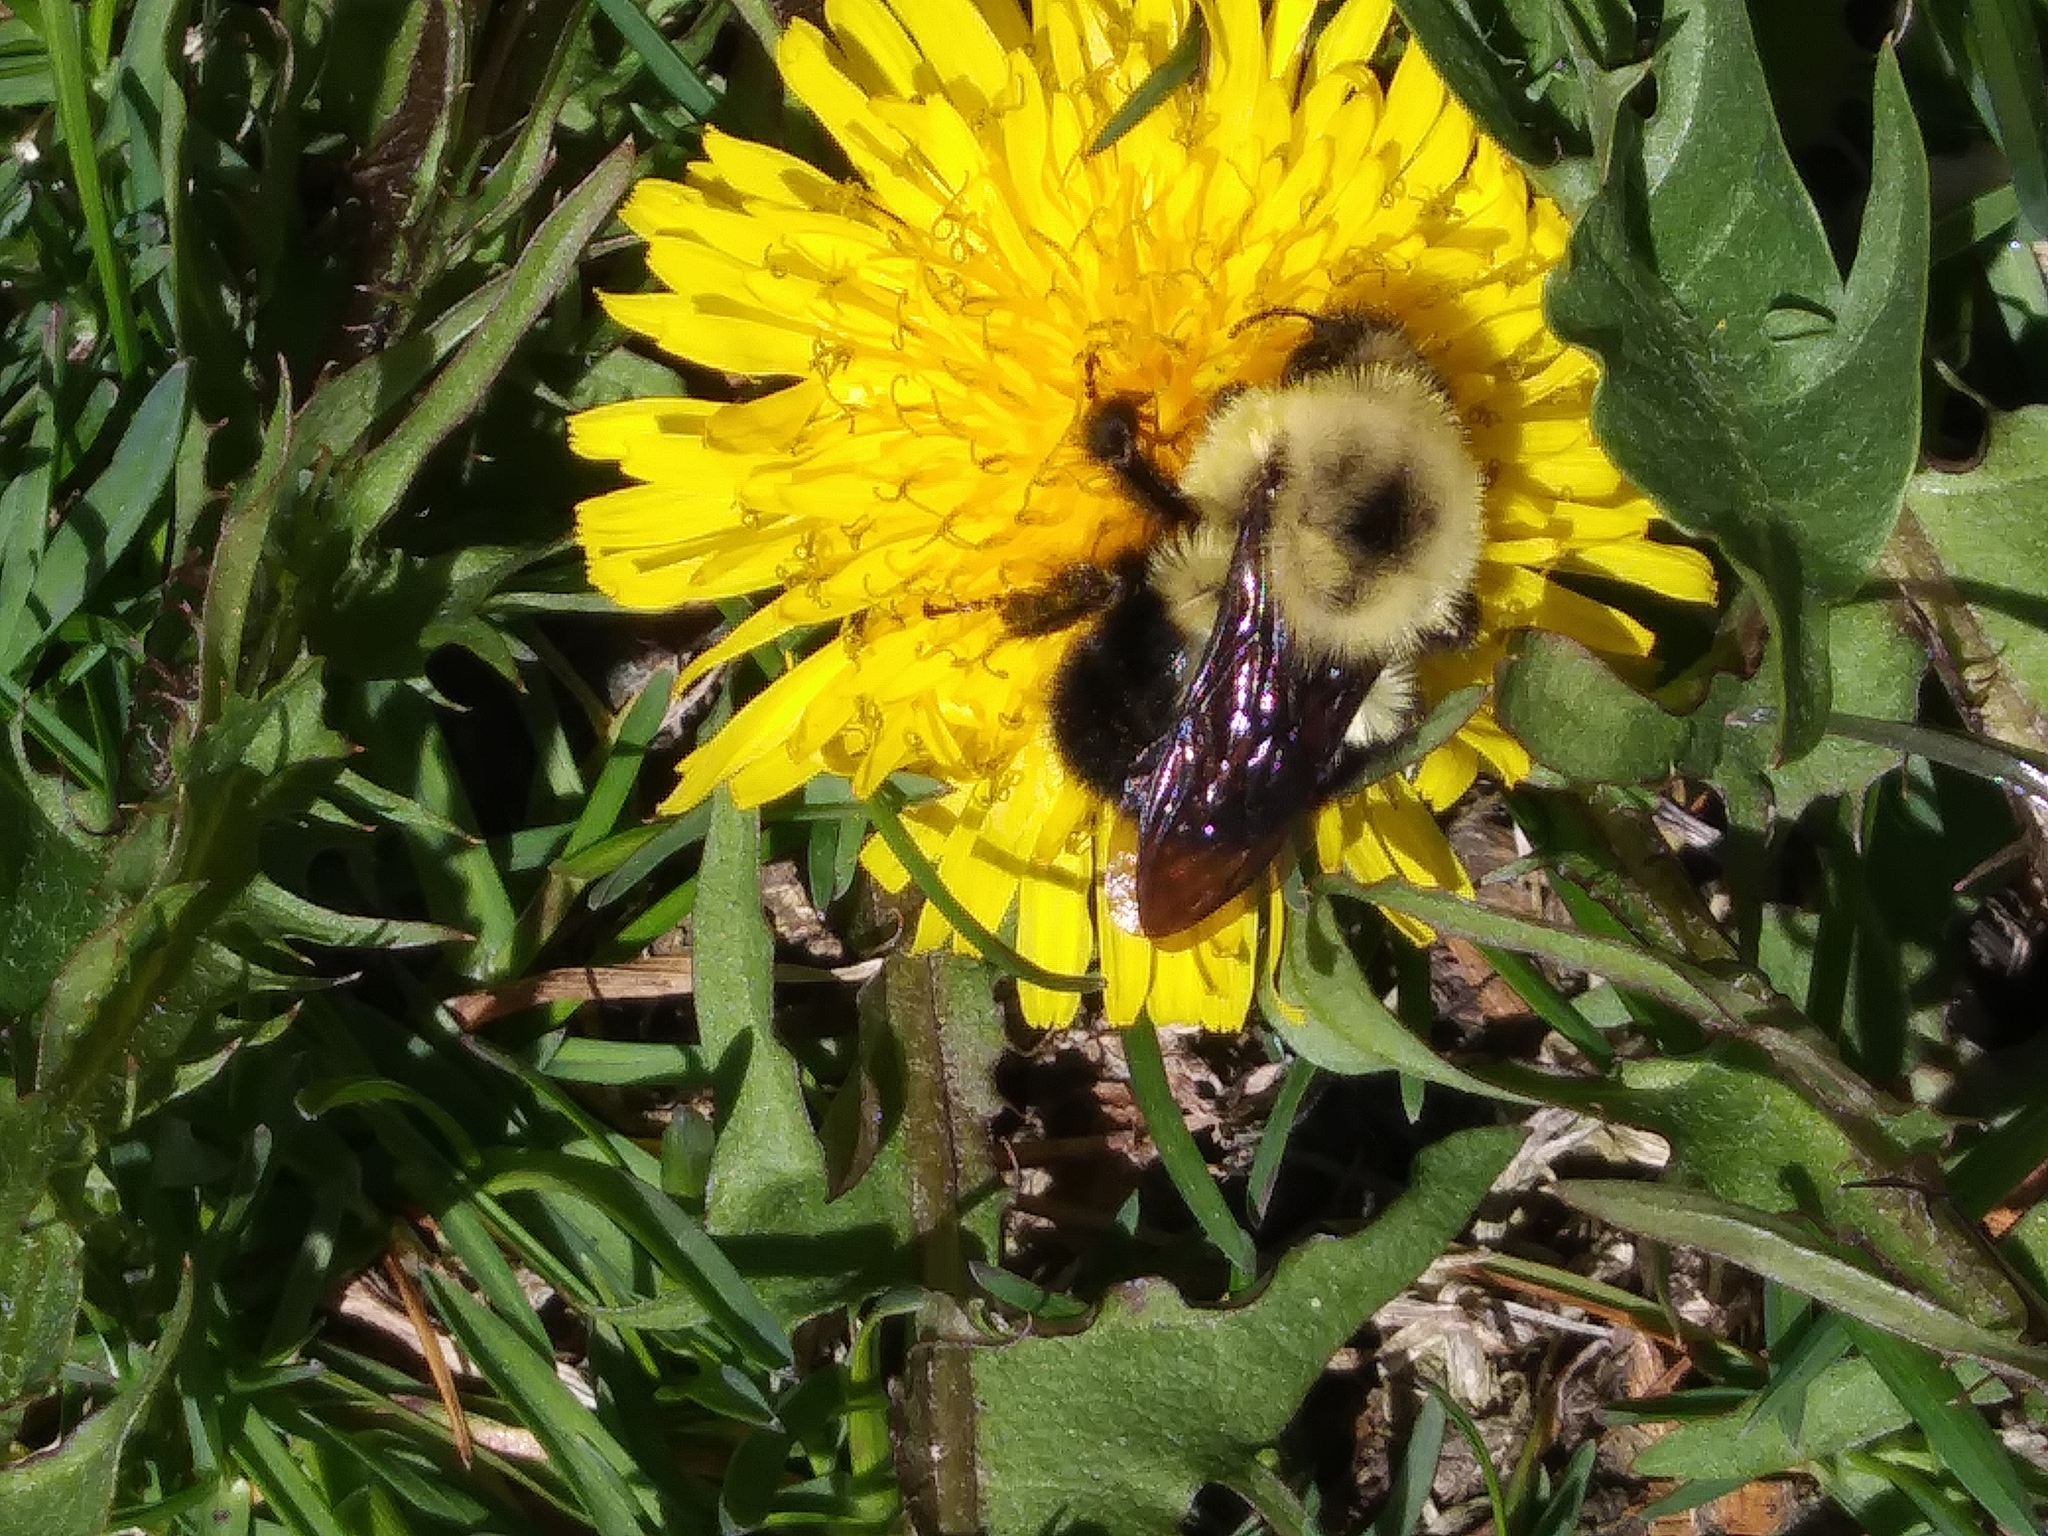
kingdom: Animalia
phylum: Arthropoda
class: Insecta
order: Hymenoptera
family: Apidae
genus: Bombus
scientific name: Bombus bimaculatus
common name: Two-spotted bumble bee
